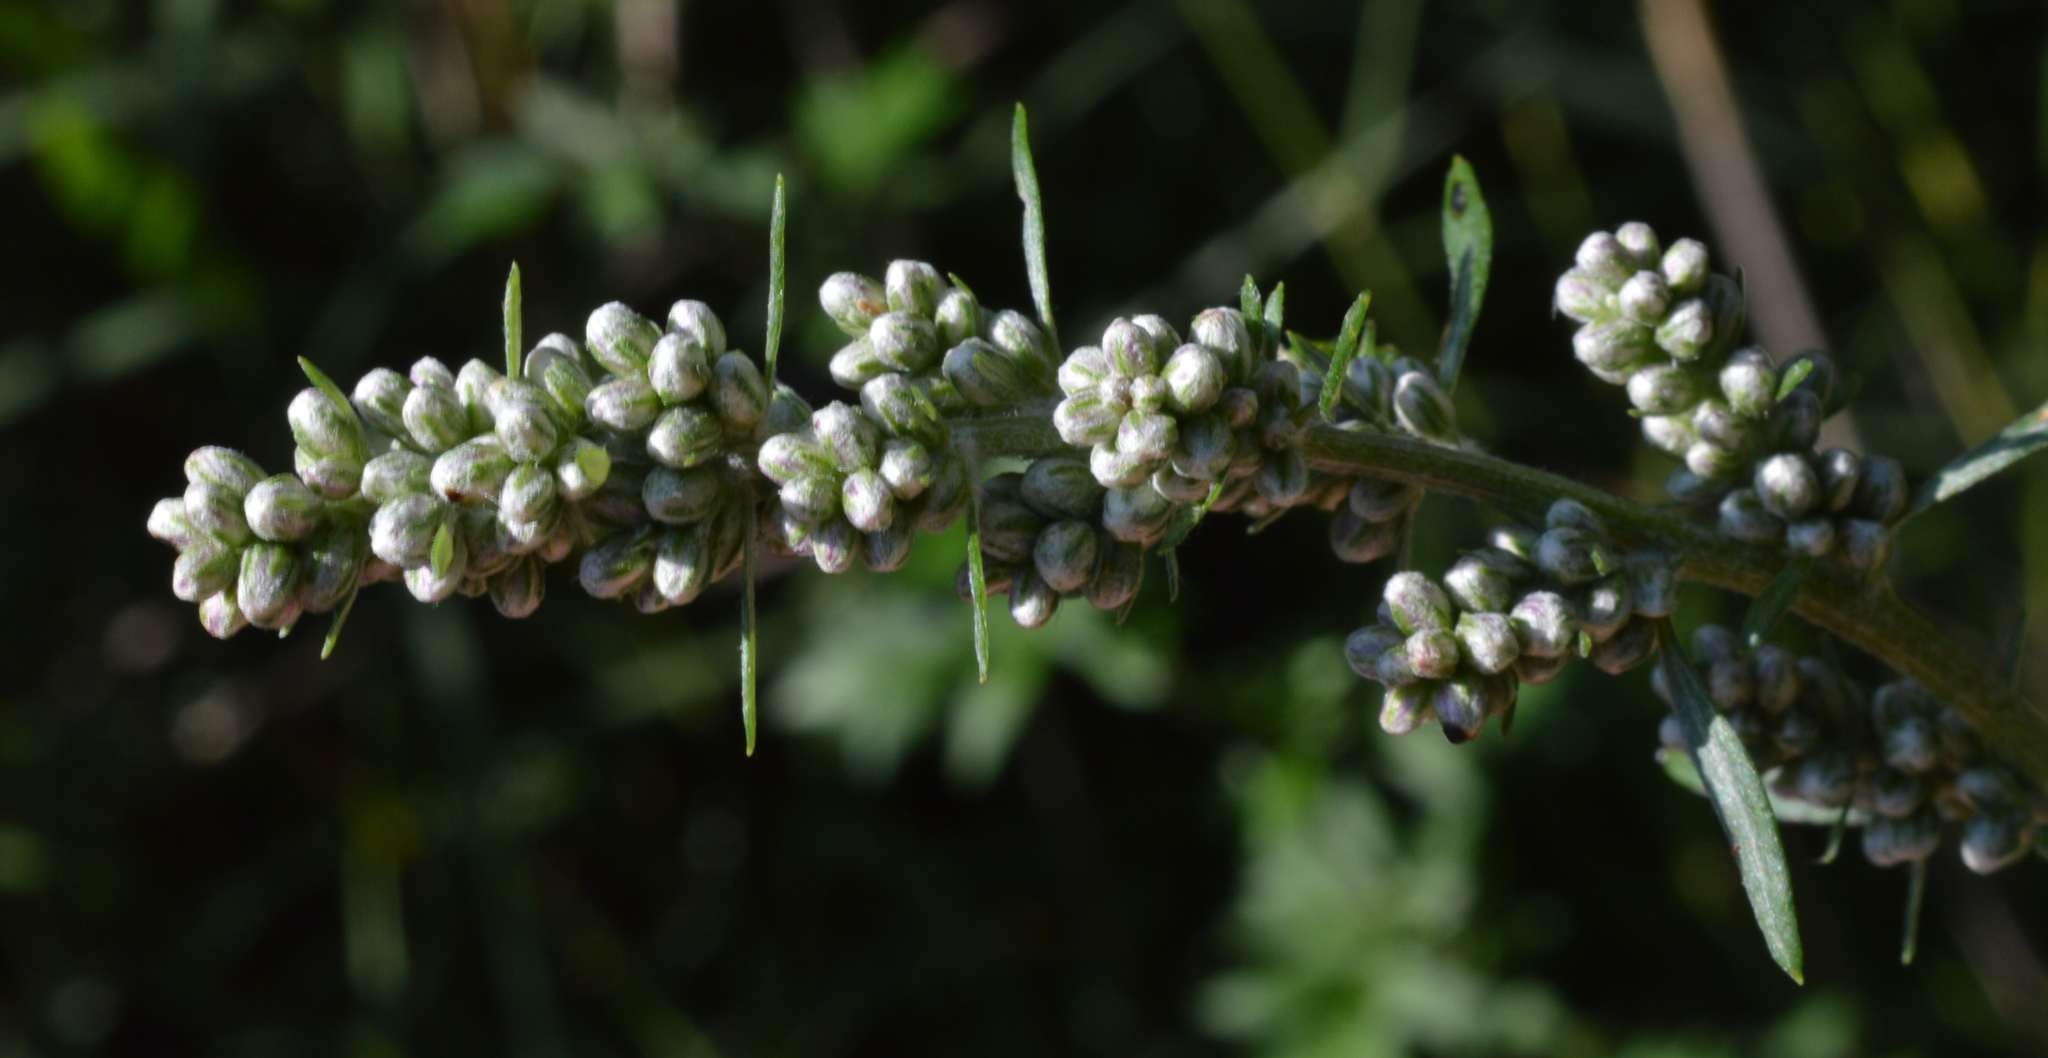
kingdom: Plantae
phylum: Tracheophyta
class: Magnoliopsida
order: Asterales
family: Asteraceae
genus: Artemisia
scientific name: Artemisia vulgaris
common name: Mugwort
